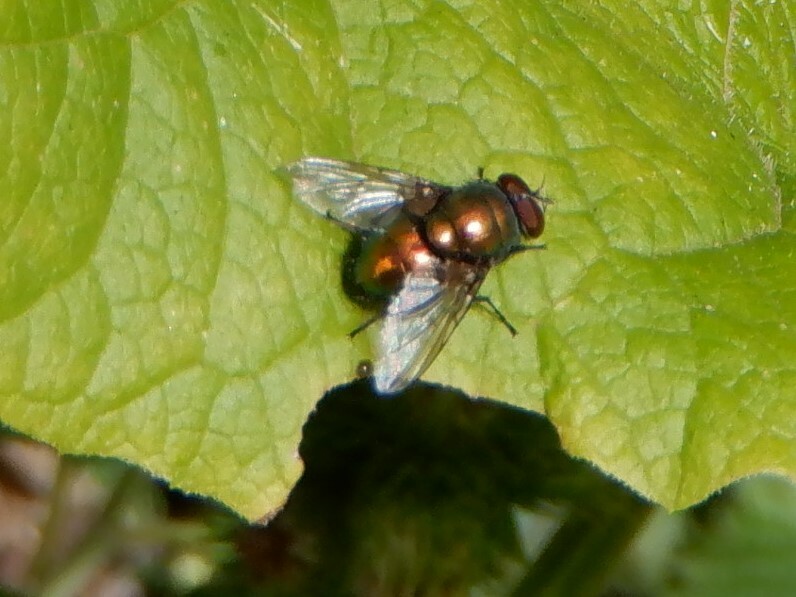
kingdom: Animalia
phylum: Arthropoda
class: Insecta
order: Diptera
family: Calliphoridae
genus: Lucilia
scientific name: Lucilia
